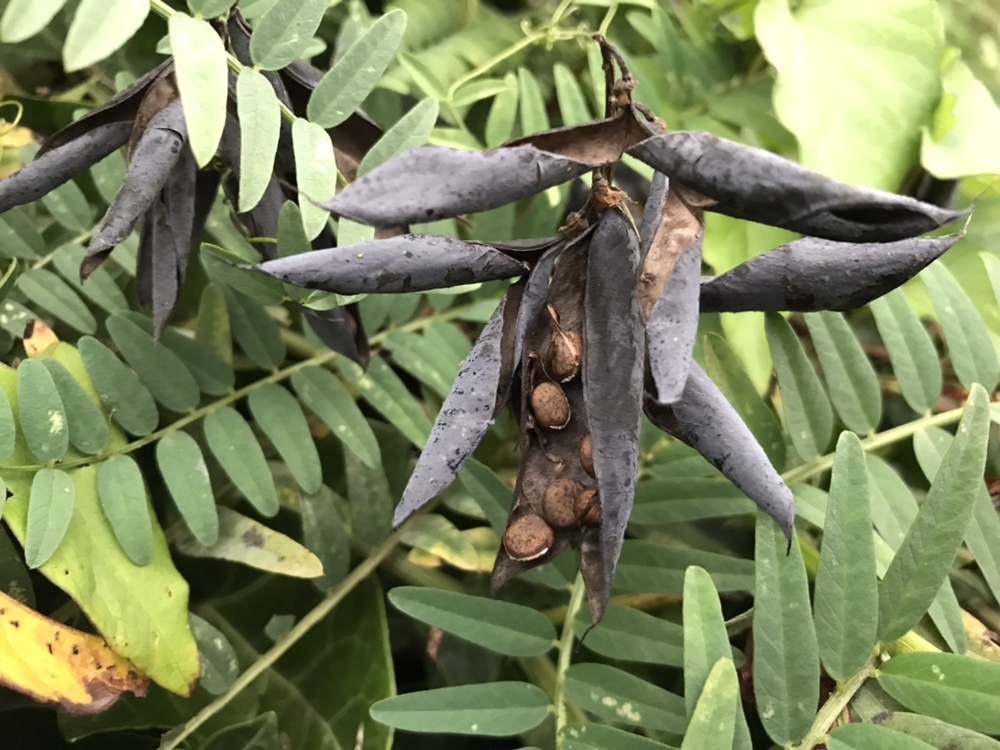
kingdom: Plantae
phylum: Tracheophyta
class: Magnoliopsida
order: Fabales
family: Fabaceae
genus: Vicia
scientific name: Vicia
